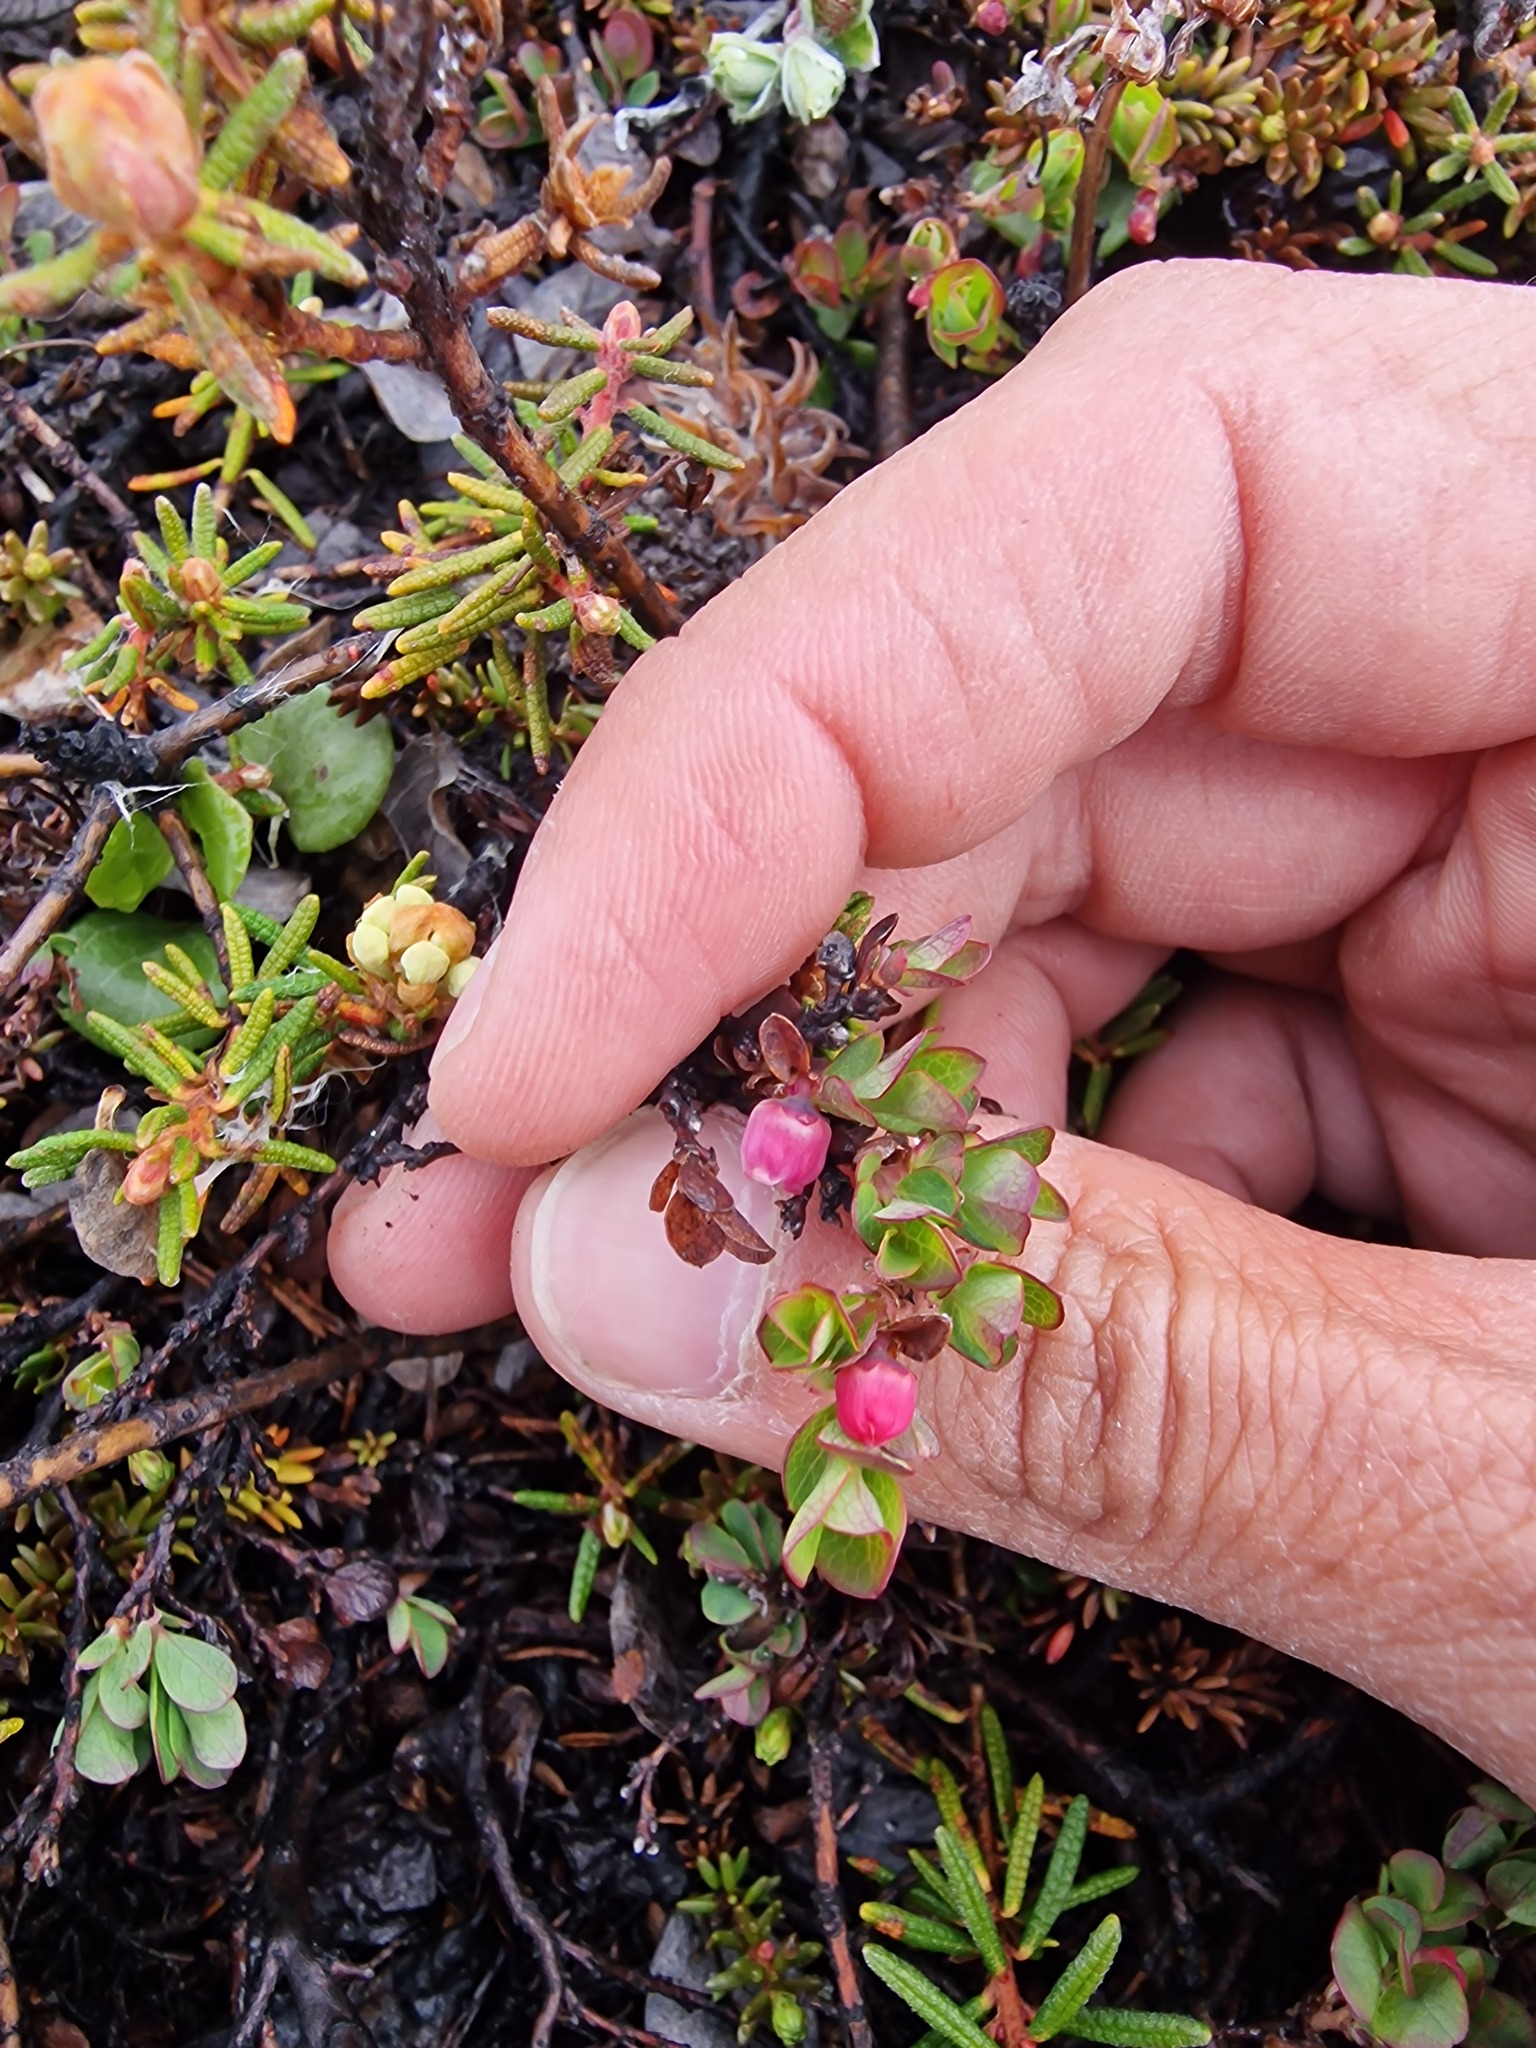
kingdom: Plantae
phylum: Tracheophyta
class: Magnoliopsida
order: Ericales
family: Ericaceae
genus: Vaccinium
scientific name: Vaccinium uliginosum
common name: Bog bilberry
